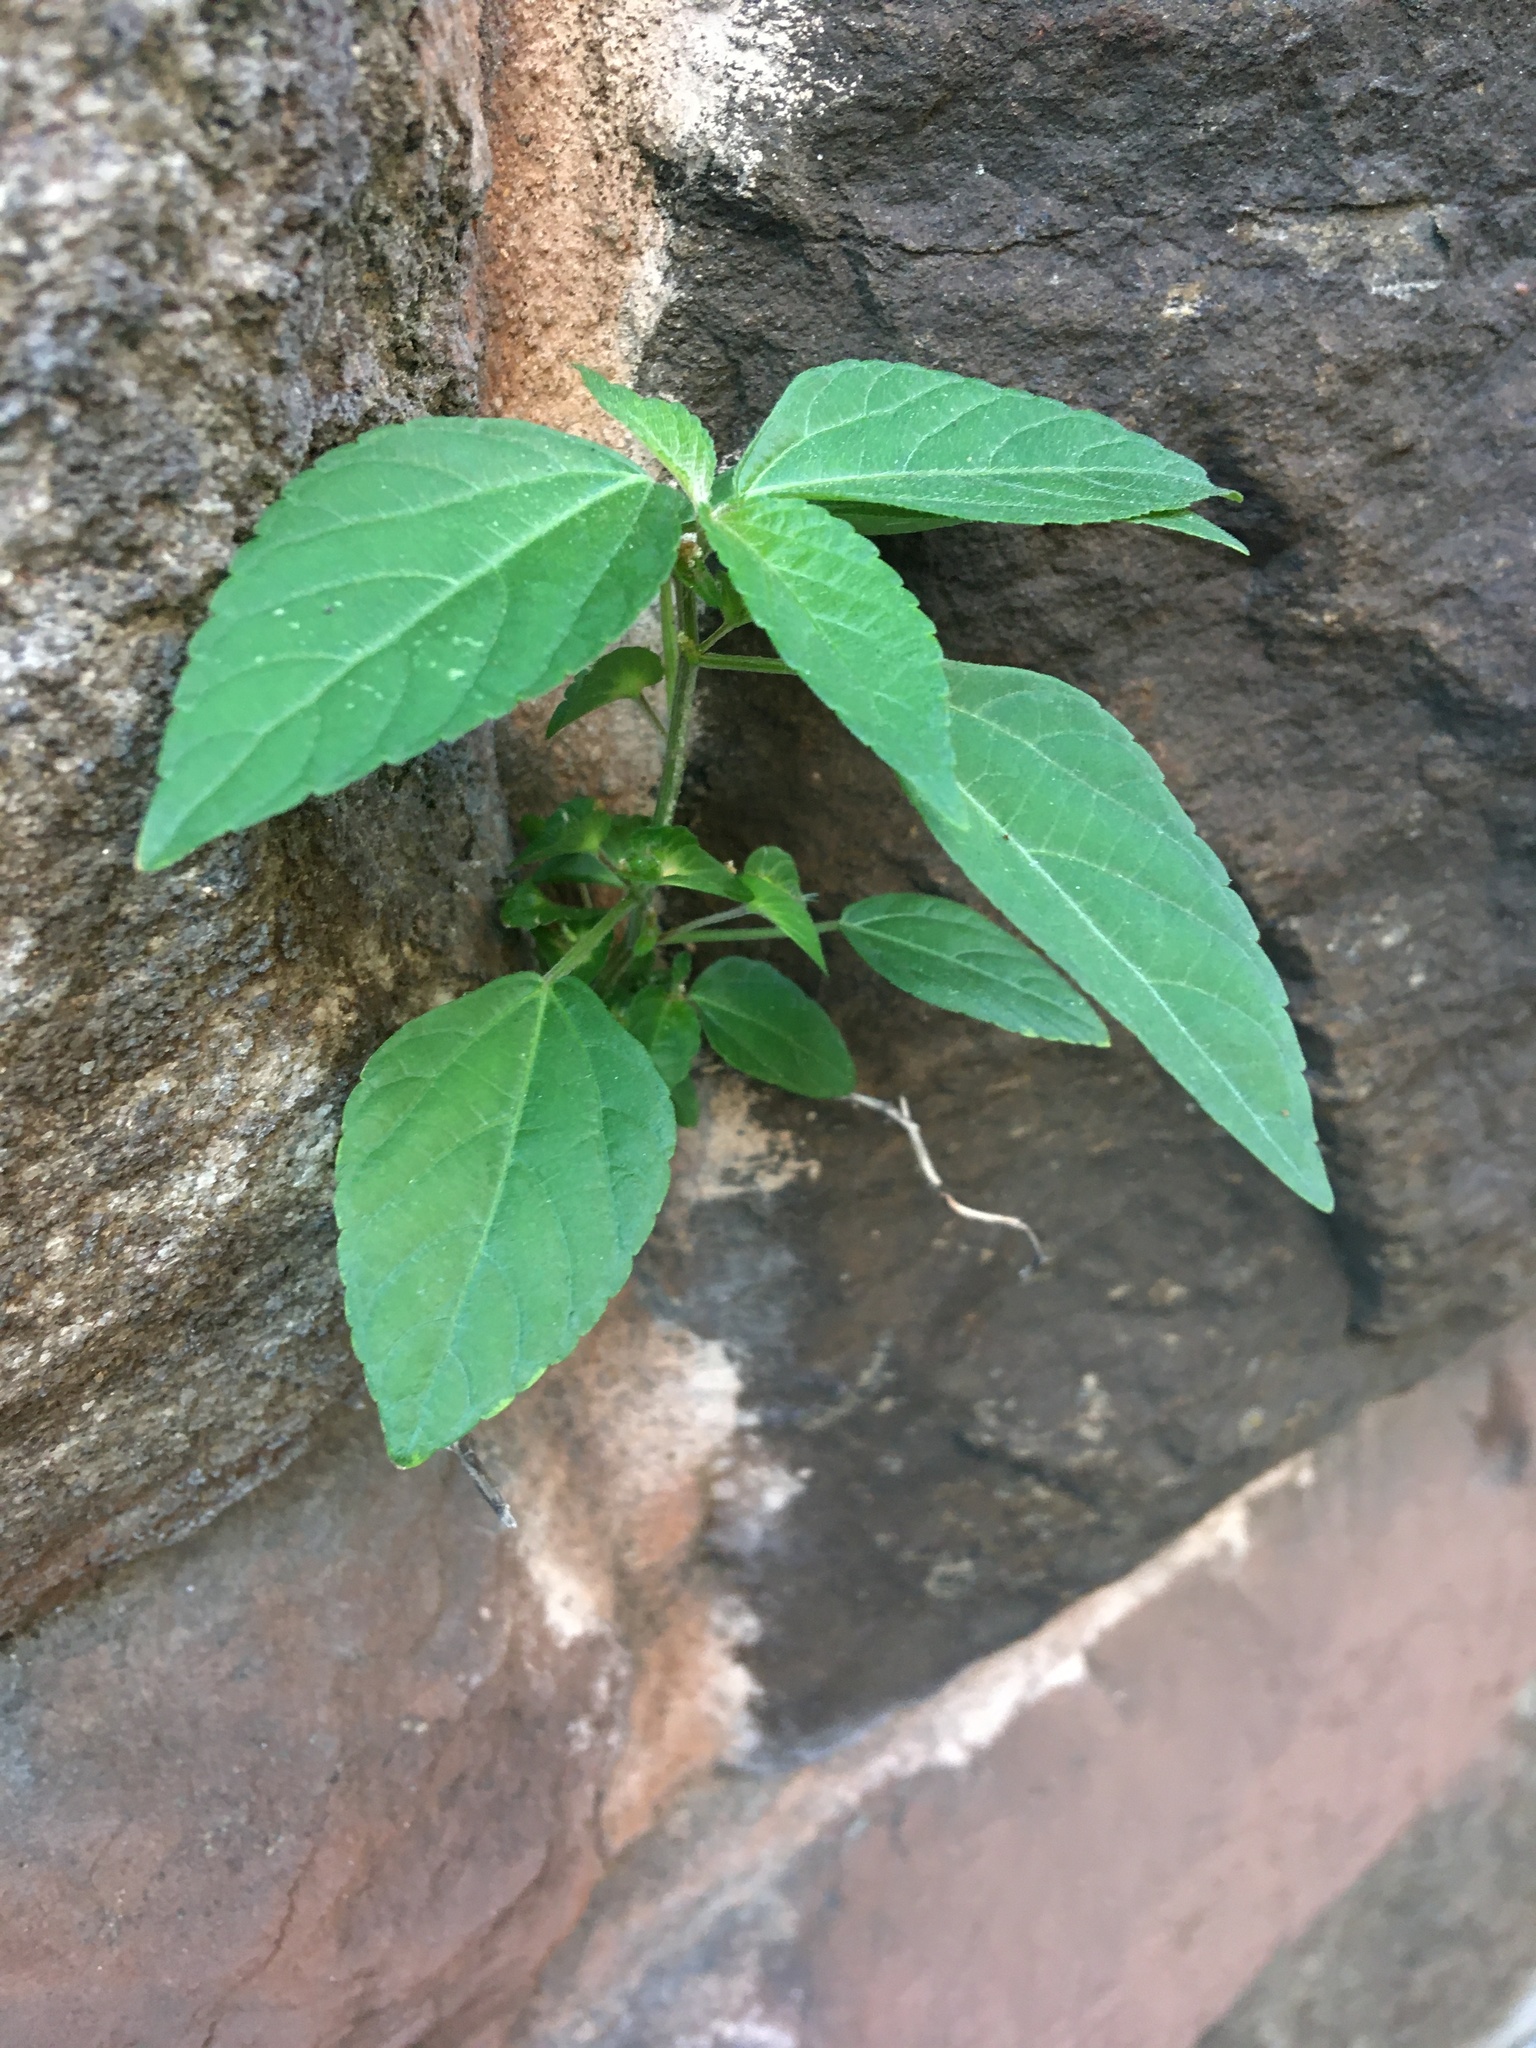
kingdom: Plantae
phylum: Tracheophyta
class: Magnoliopsida
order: Malpighiales
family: Euphorbiaceae
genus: Acalypha
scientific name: Acalypha australis
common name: Asian copperleaf
